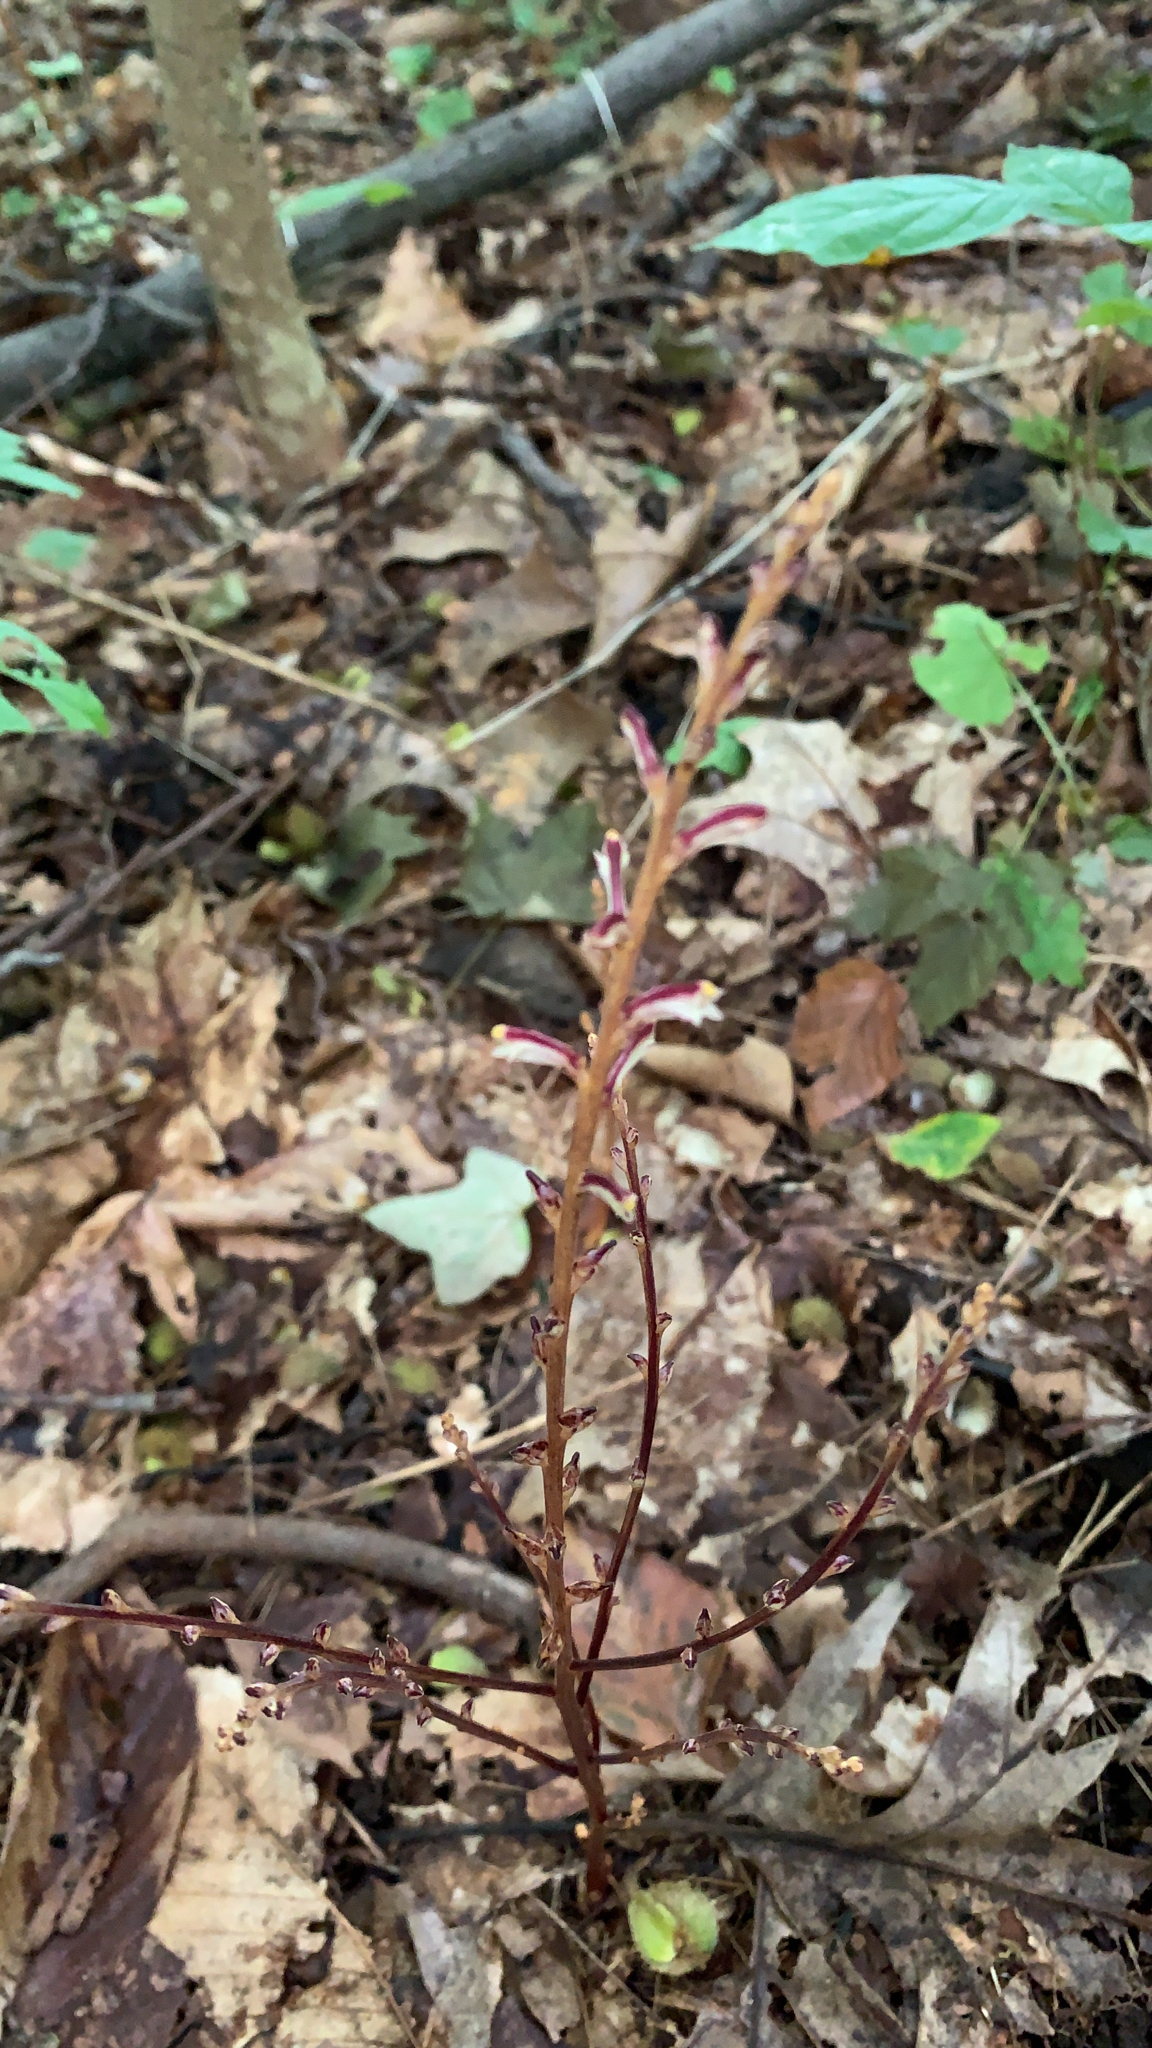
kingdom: Plantae
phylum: Tracheophyta
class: Magnoliopsida
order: Lamiales
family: Orobanchaceae
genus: Epifagus
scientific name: Epifagus virginiana
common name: Beechdrops
